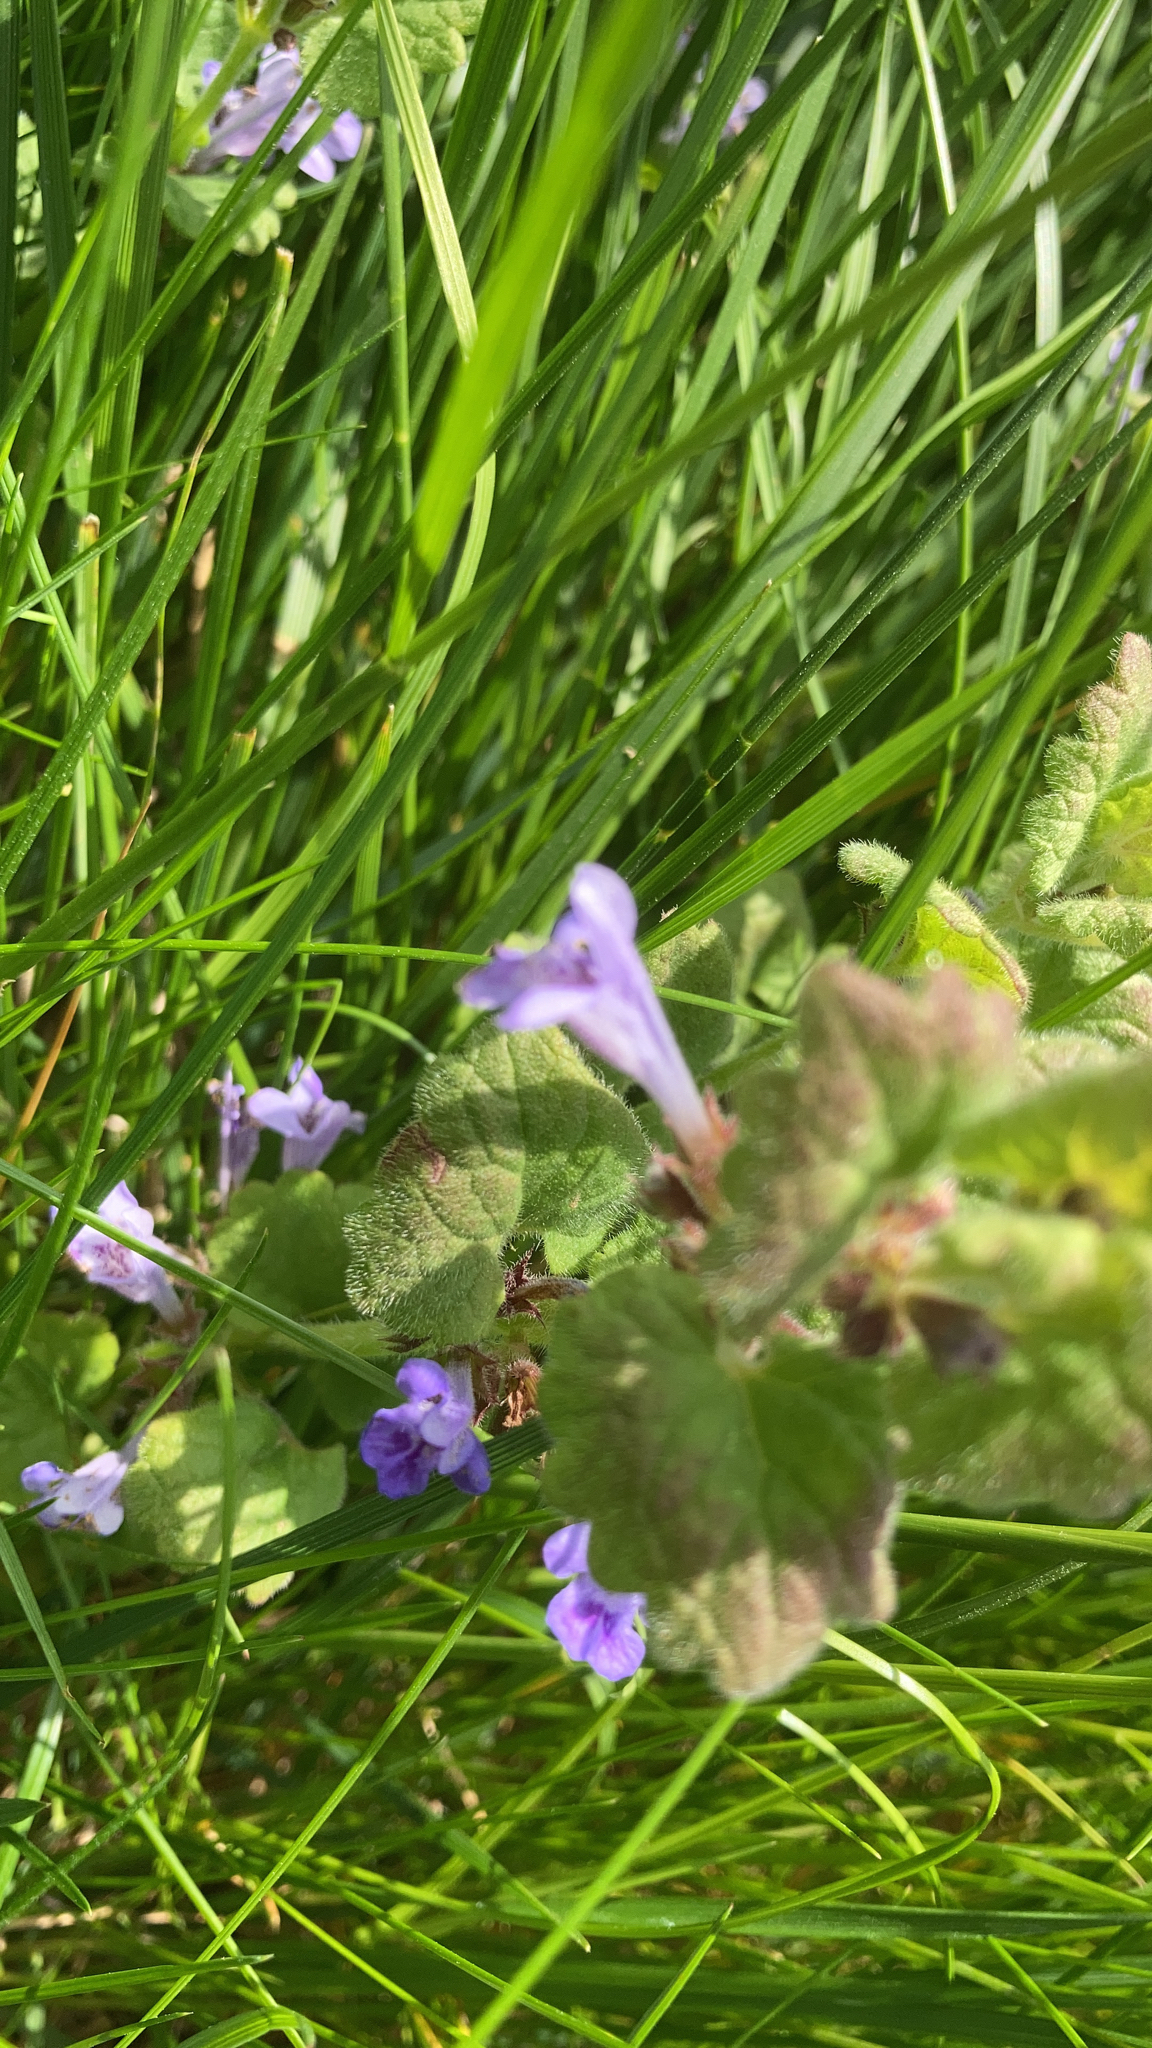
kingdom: Plantae
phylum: Tracheophyta
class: Magnoliopsida
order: Lamiales
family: Lamiaceae
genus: Glechoma
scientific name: Glechoma hederacea
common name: Ground ivy
